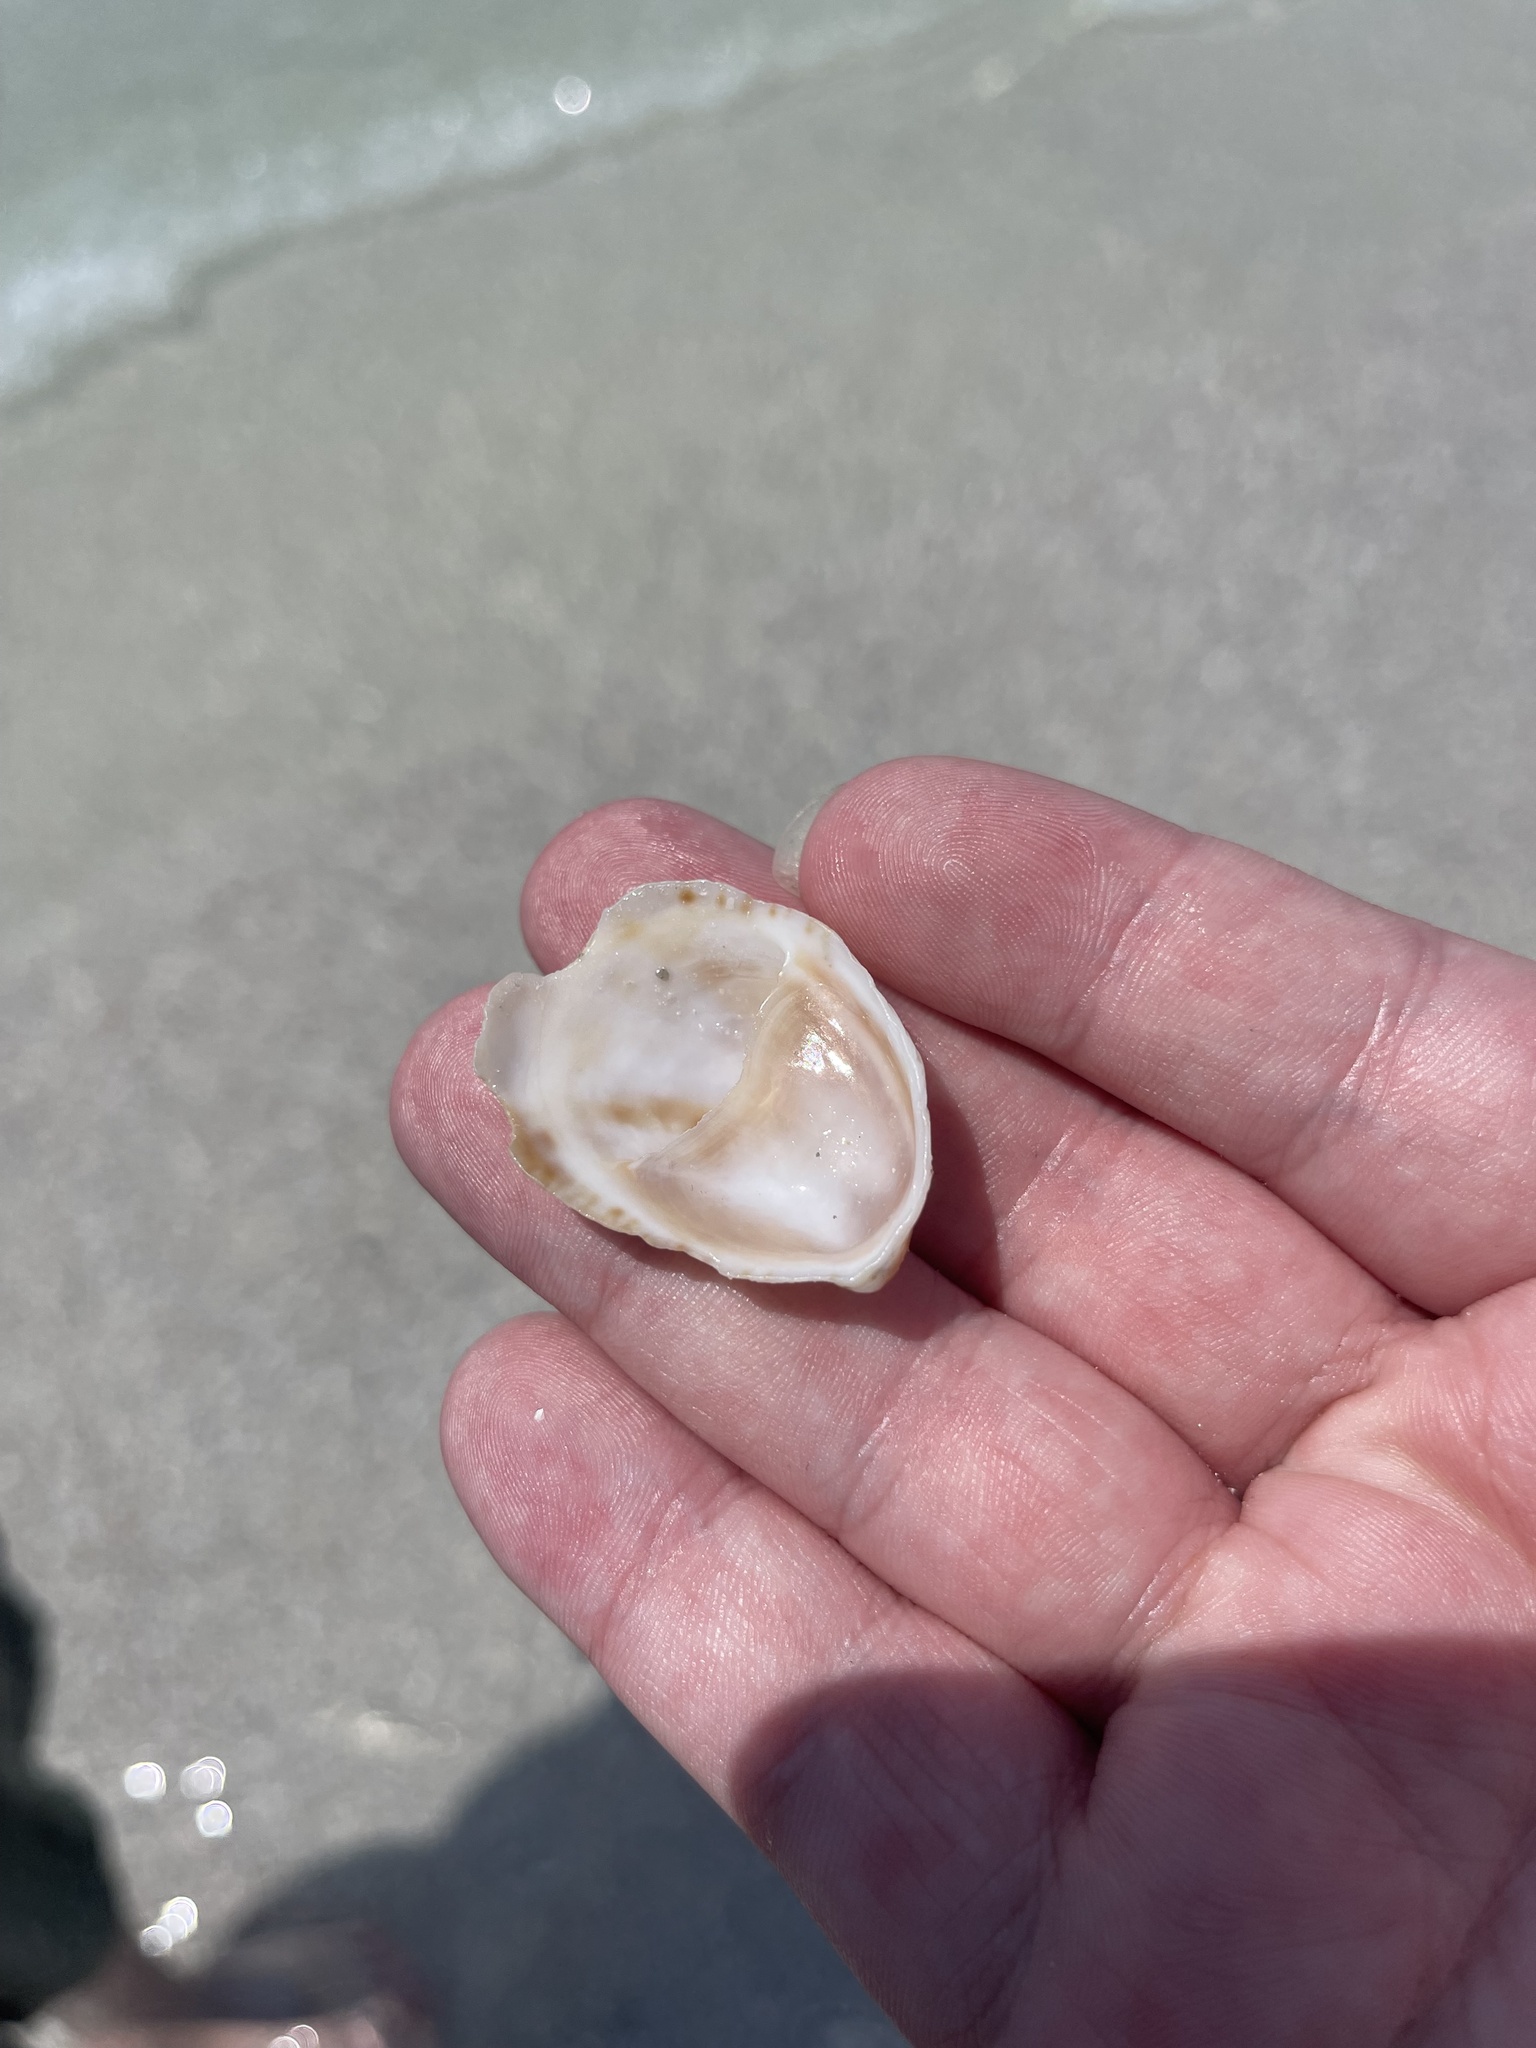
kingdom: Animalia
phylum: Mollusca
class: Gastropoda
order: Littorinimorpha
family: Calyptraeidae
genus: Crepidula
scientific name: Crepidula fornicata
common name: Slipper limpet
